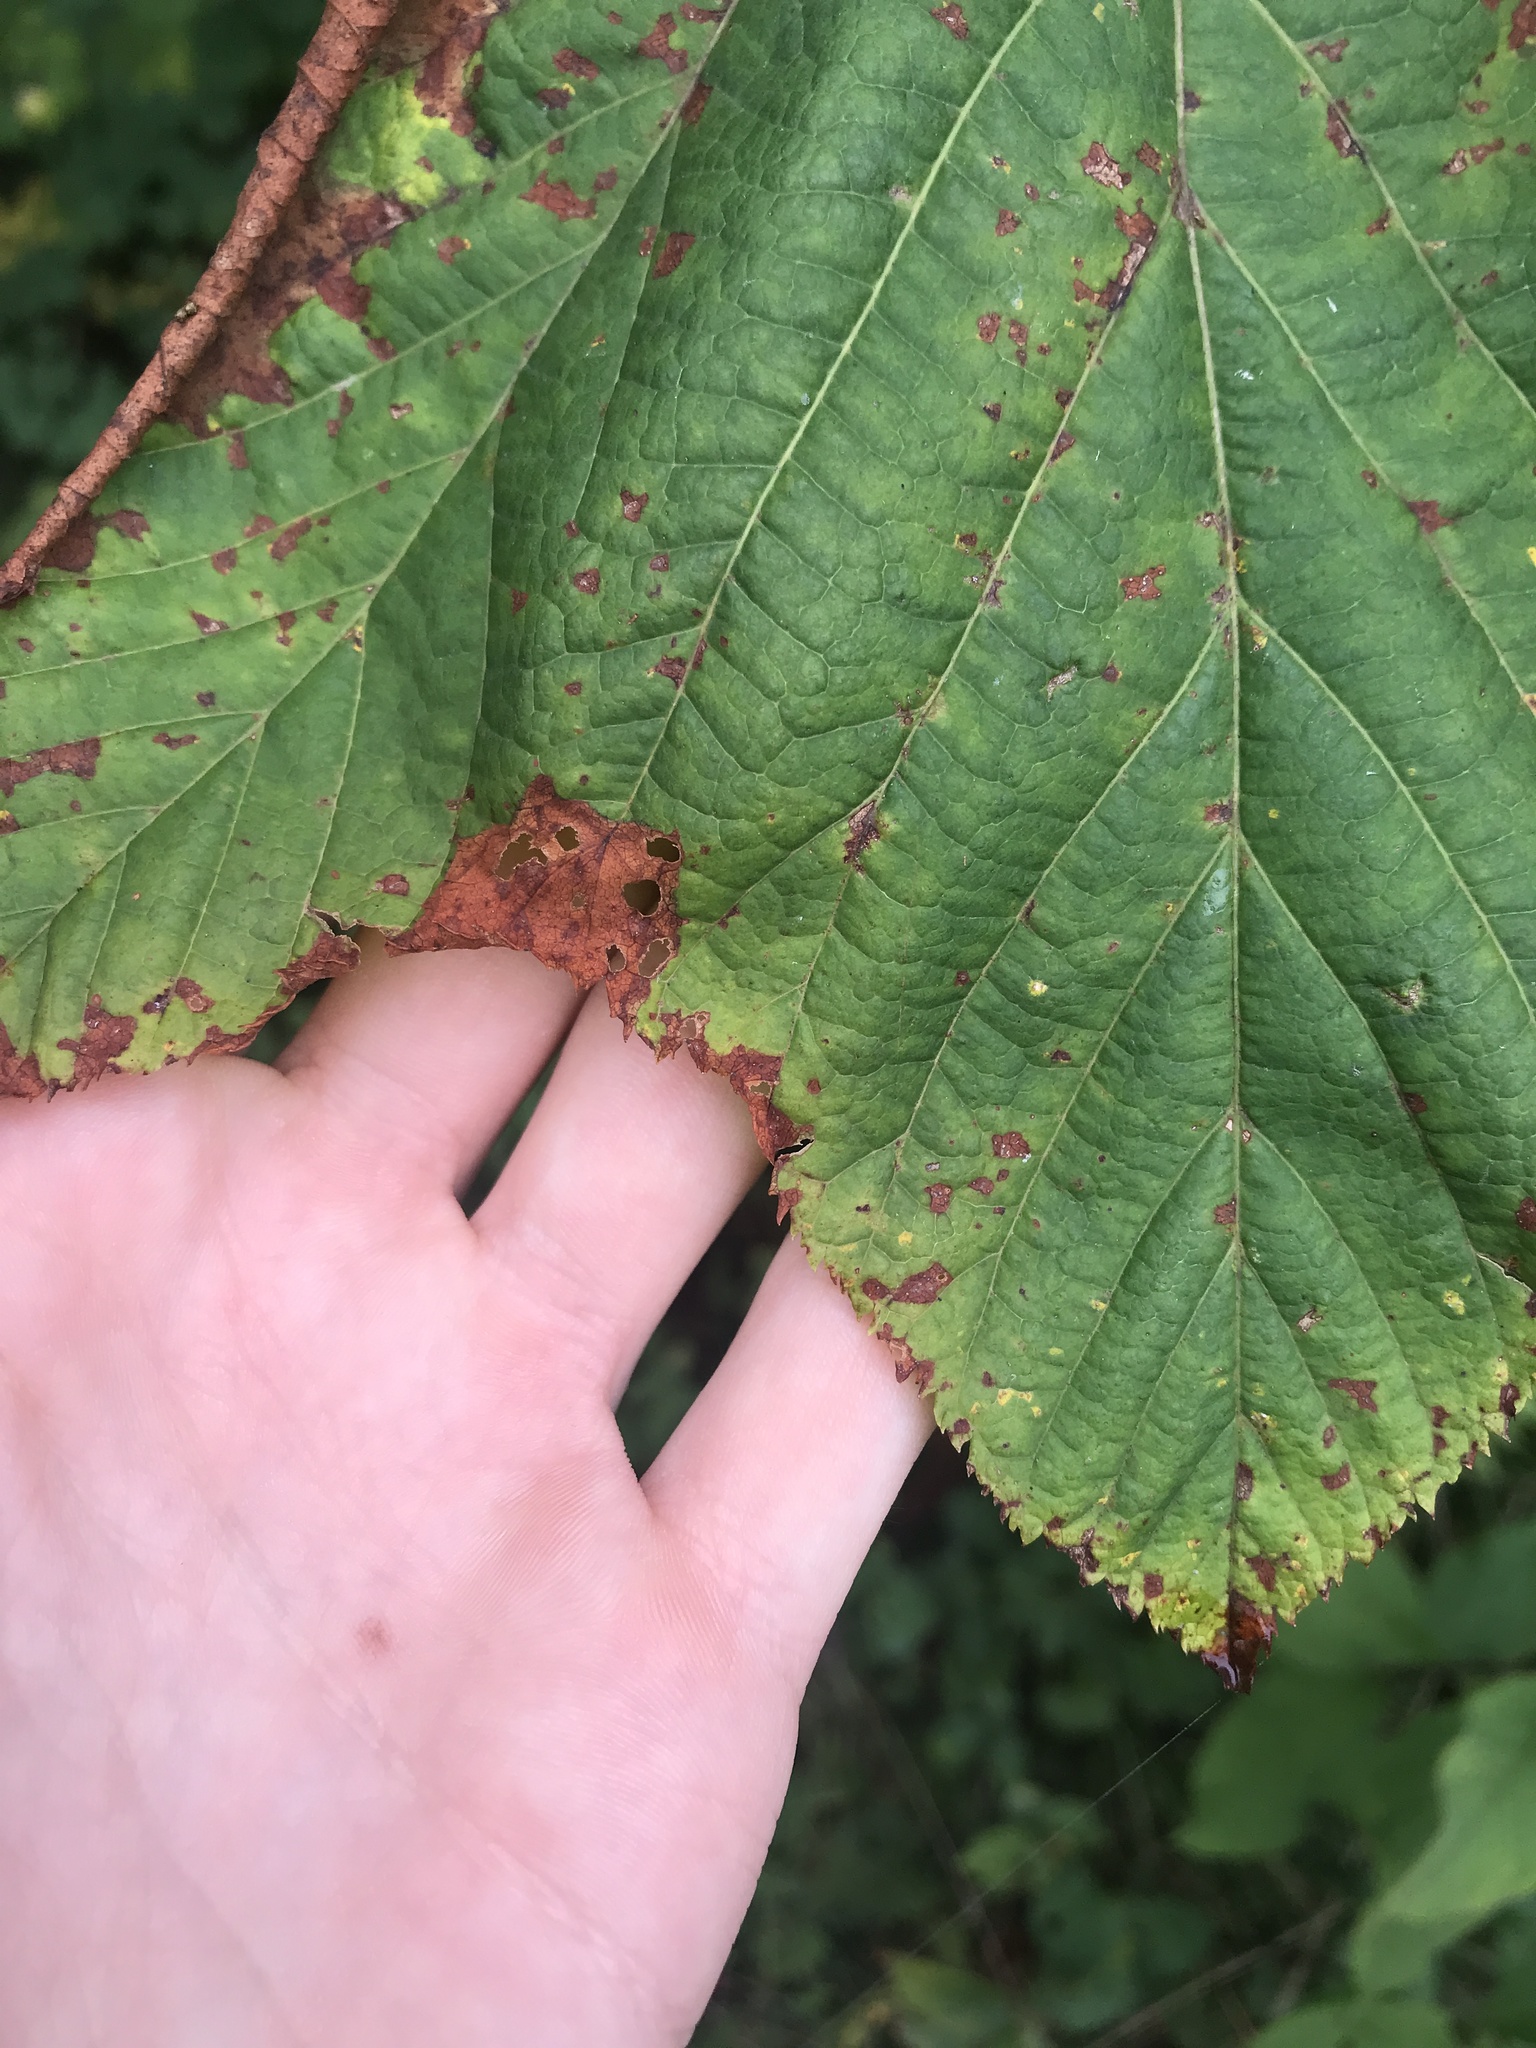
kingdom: Plantae
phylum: Tracheophyta
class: Magnoliopsida
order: Sapindales
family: Sapindaceae
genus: Acer
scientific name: Acer pensylvanicum
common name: Moosewood
